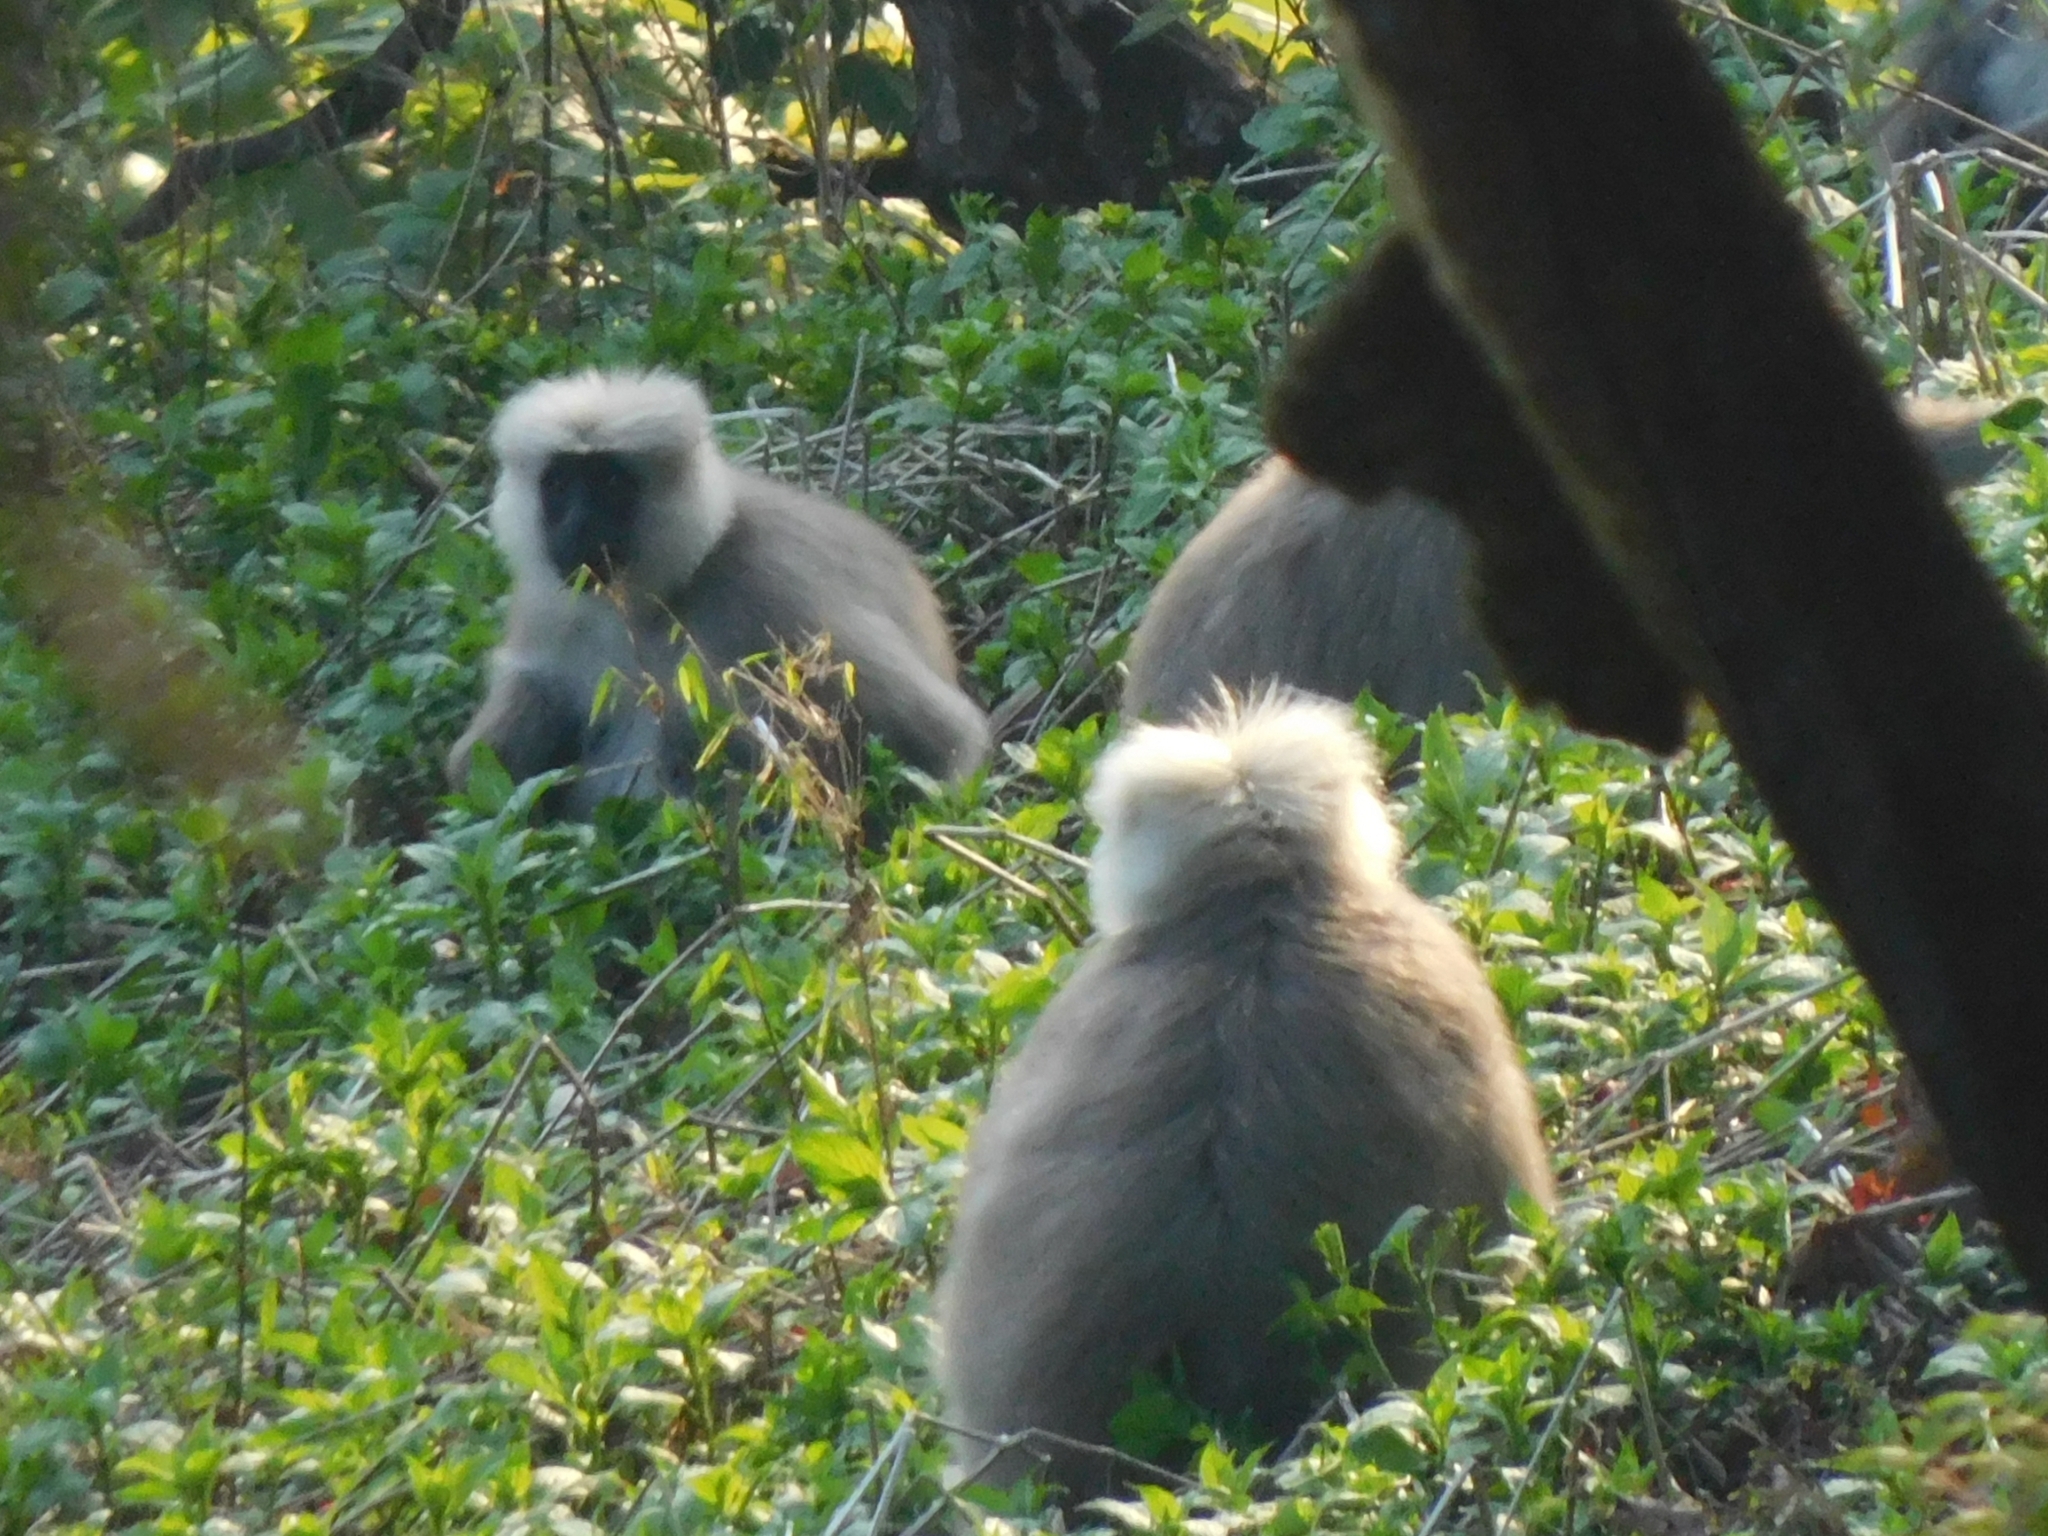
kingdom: Animalia
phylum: Chordata
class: Mammalia
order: Primates
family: Cercopithecidae
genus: Semnopithecus
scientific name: Semnopithecus schistaceus
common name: Nepal gray langur
